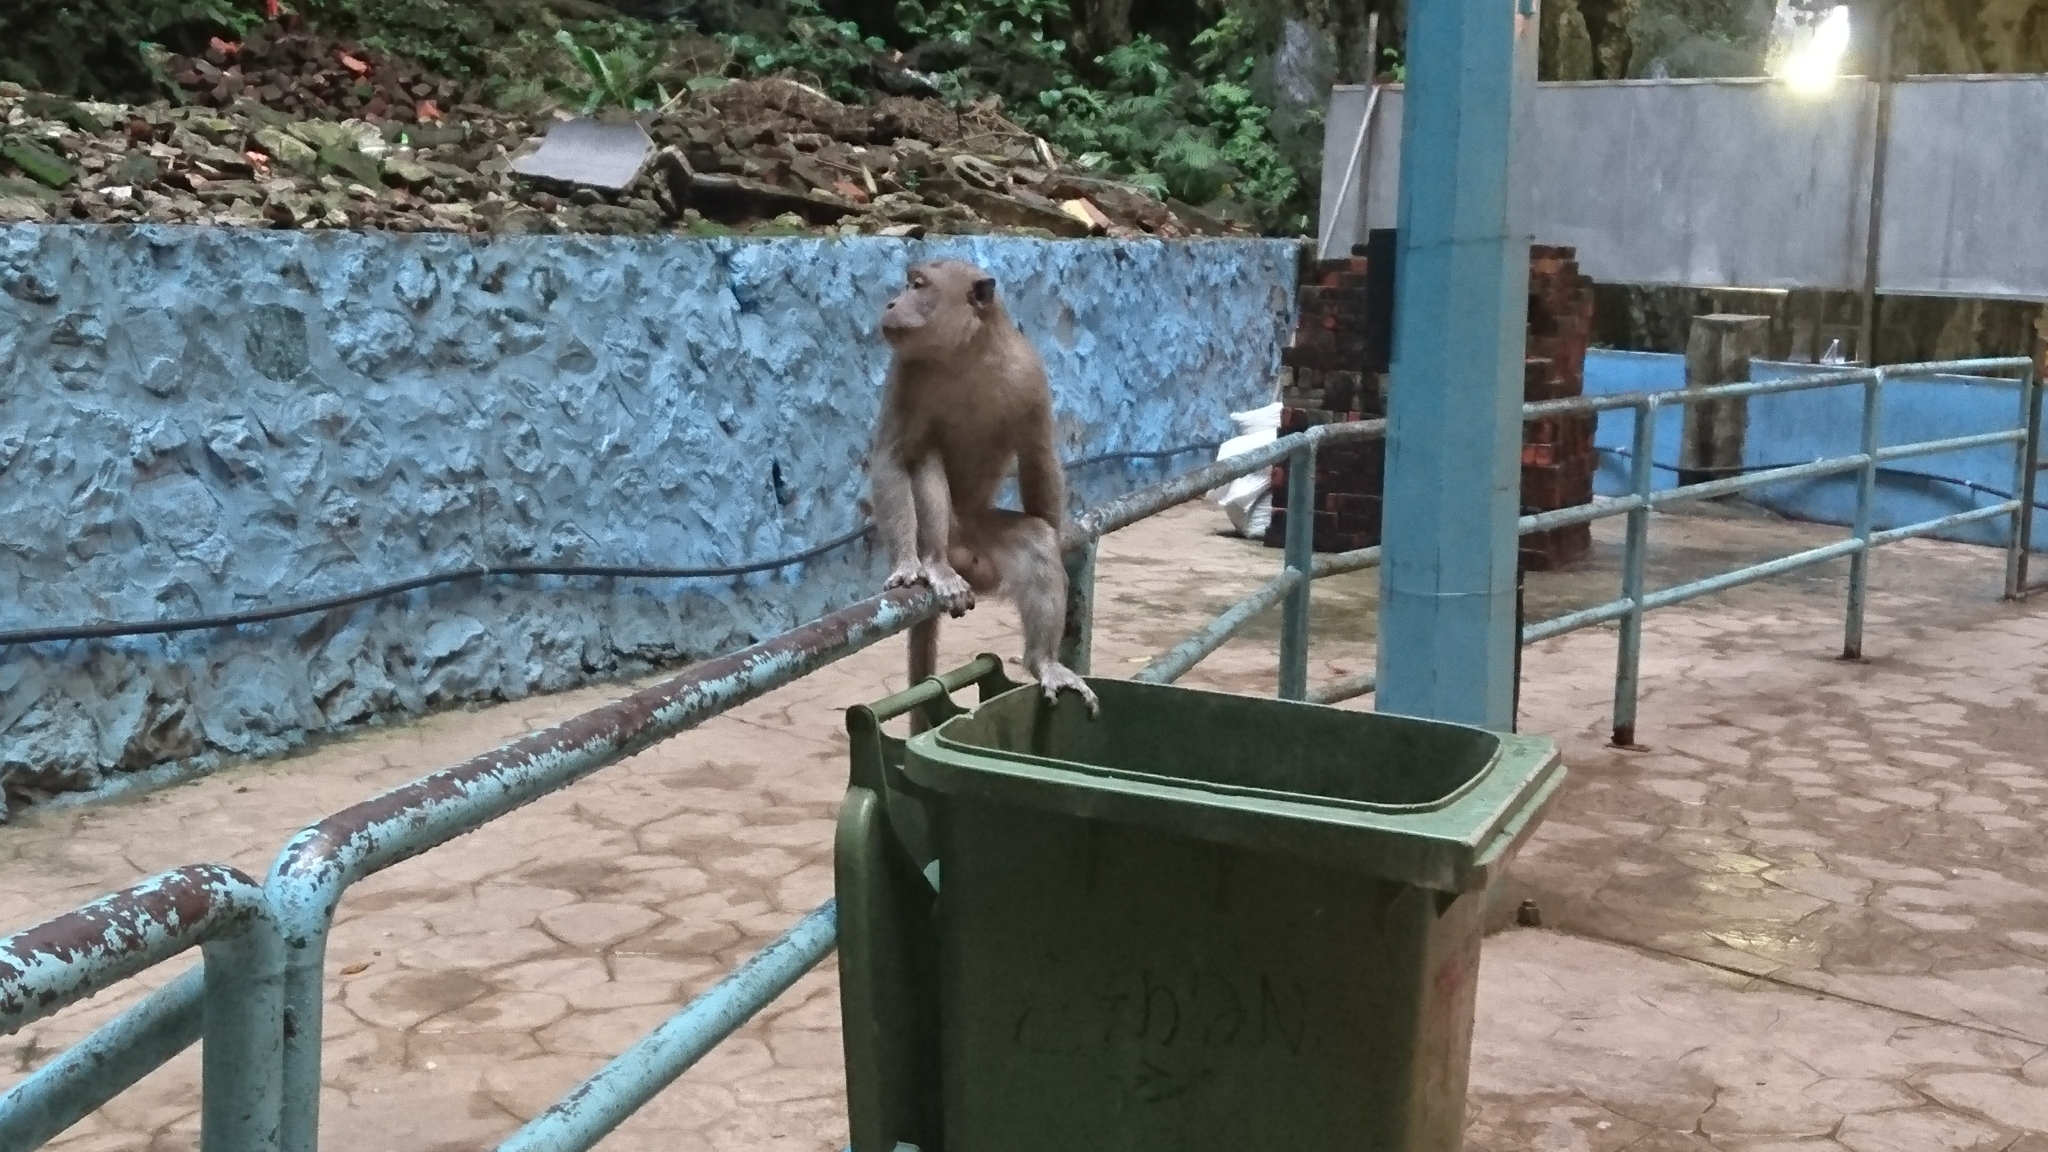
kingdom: Animalia
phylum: Chordata
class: Mammalia
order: Primates
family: Cercopithecidae
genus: Macaca
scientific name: Macaca fascicularis
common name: Crab-eating macaque
